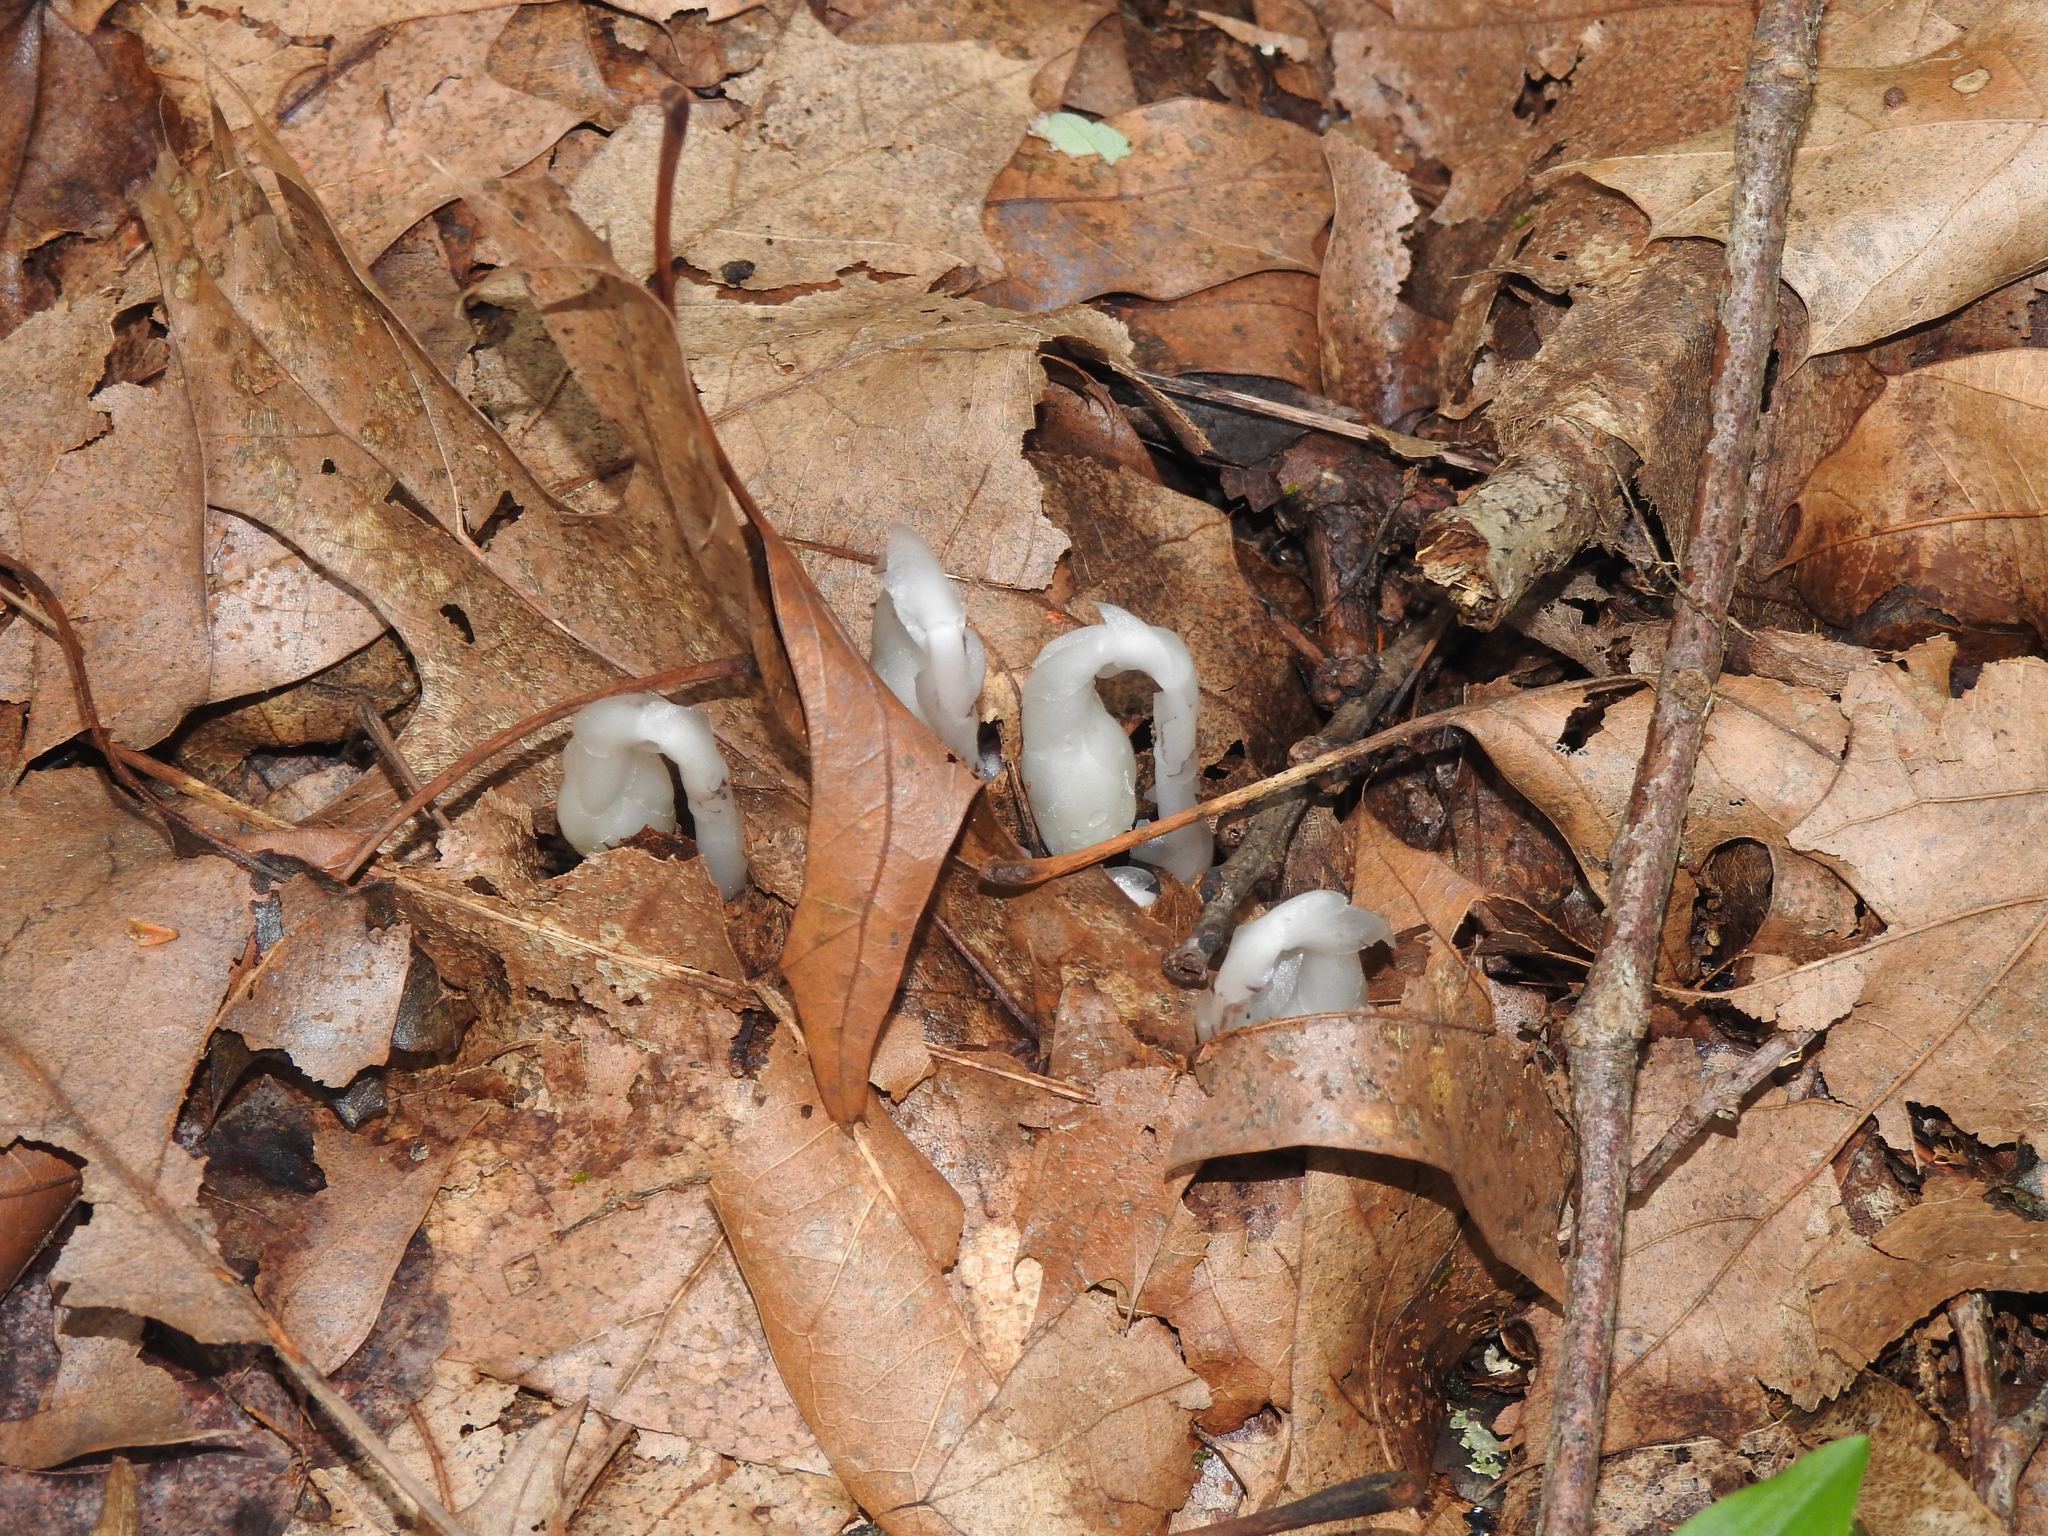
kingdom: Plantae
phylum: Tracheophyta
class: Magnoliopsida
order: Ericales
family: Ericaceae
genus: Monotropa
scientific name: Monotropa uniflora
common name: Convulsion root
